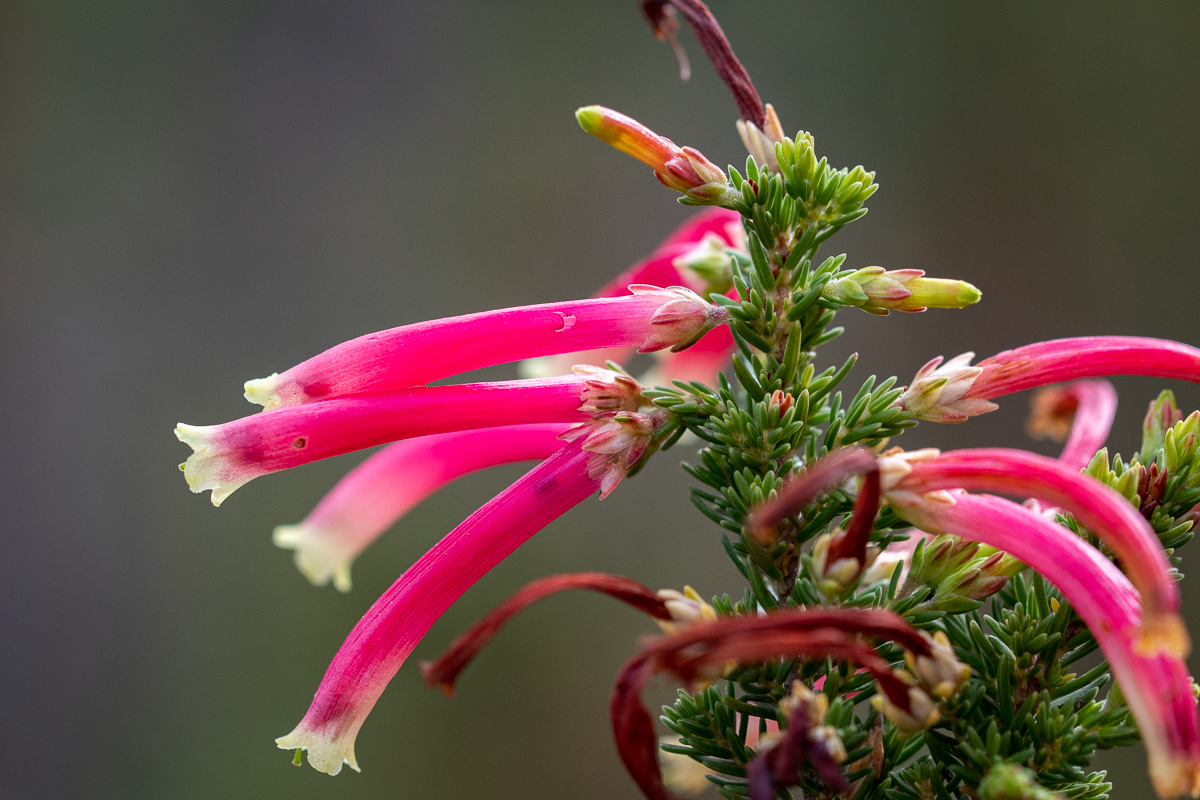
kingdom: Plantae
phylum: Tracheophyta
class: Magnoliopsida
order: Ericales
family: Ericaceae
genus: Erica
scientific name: Erica discolor
